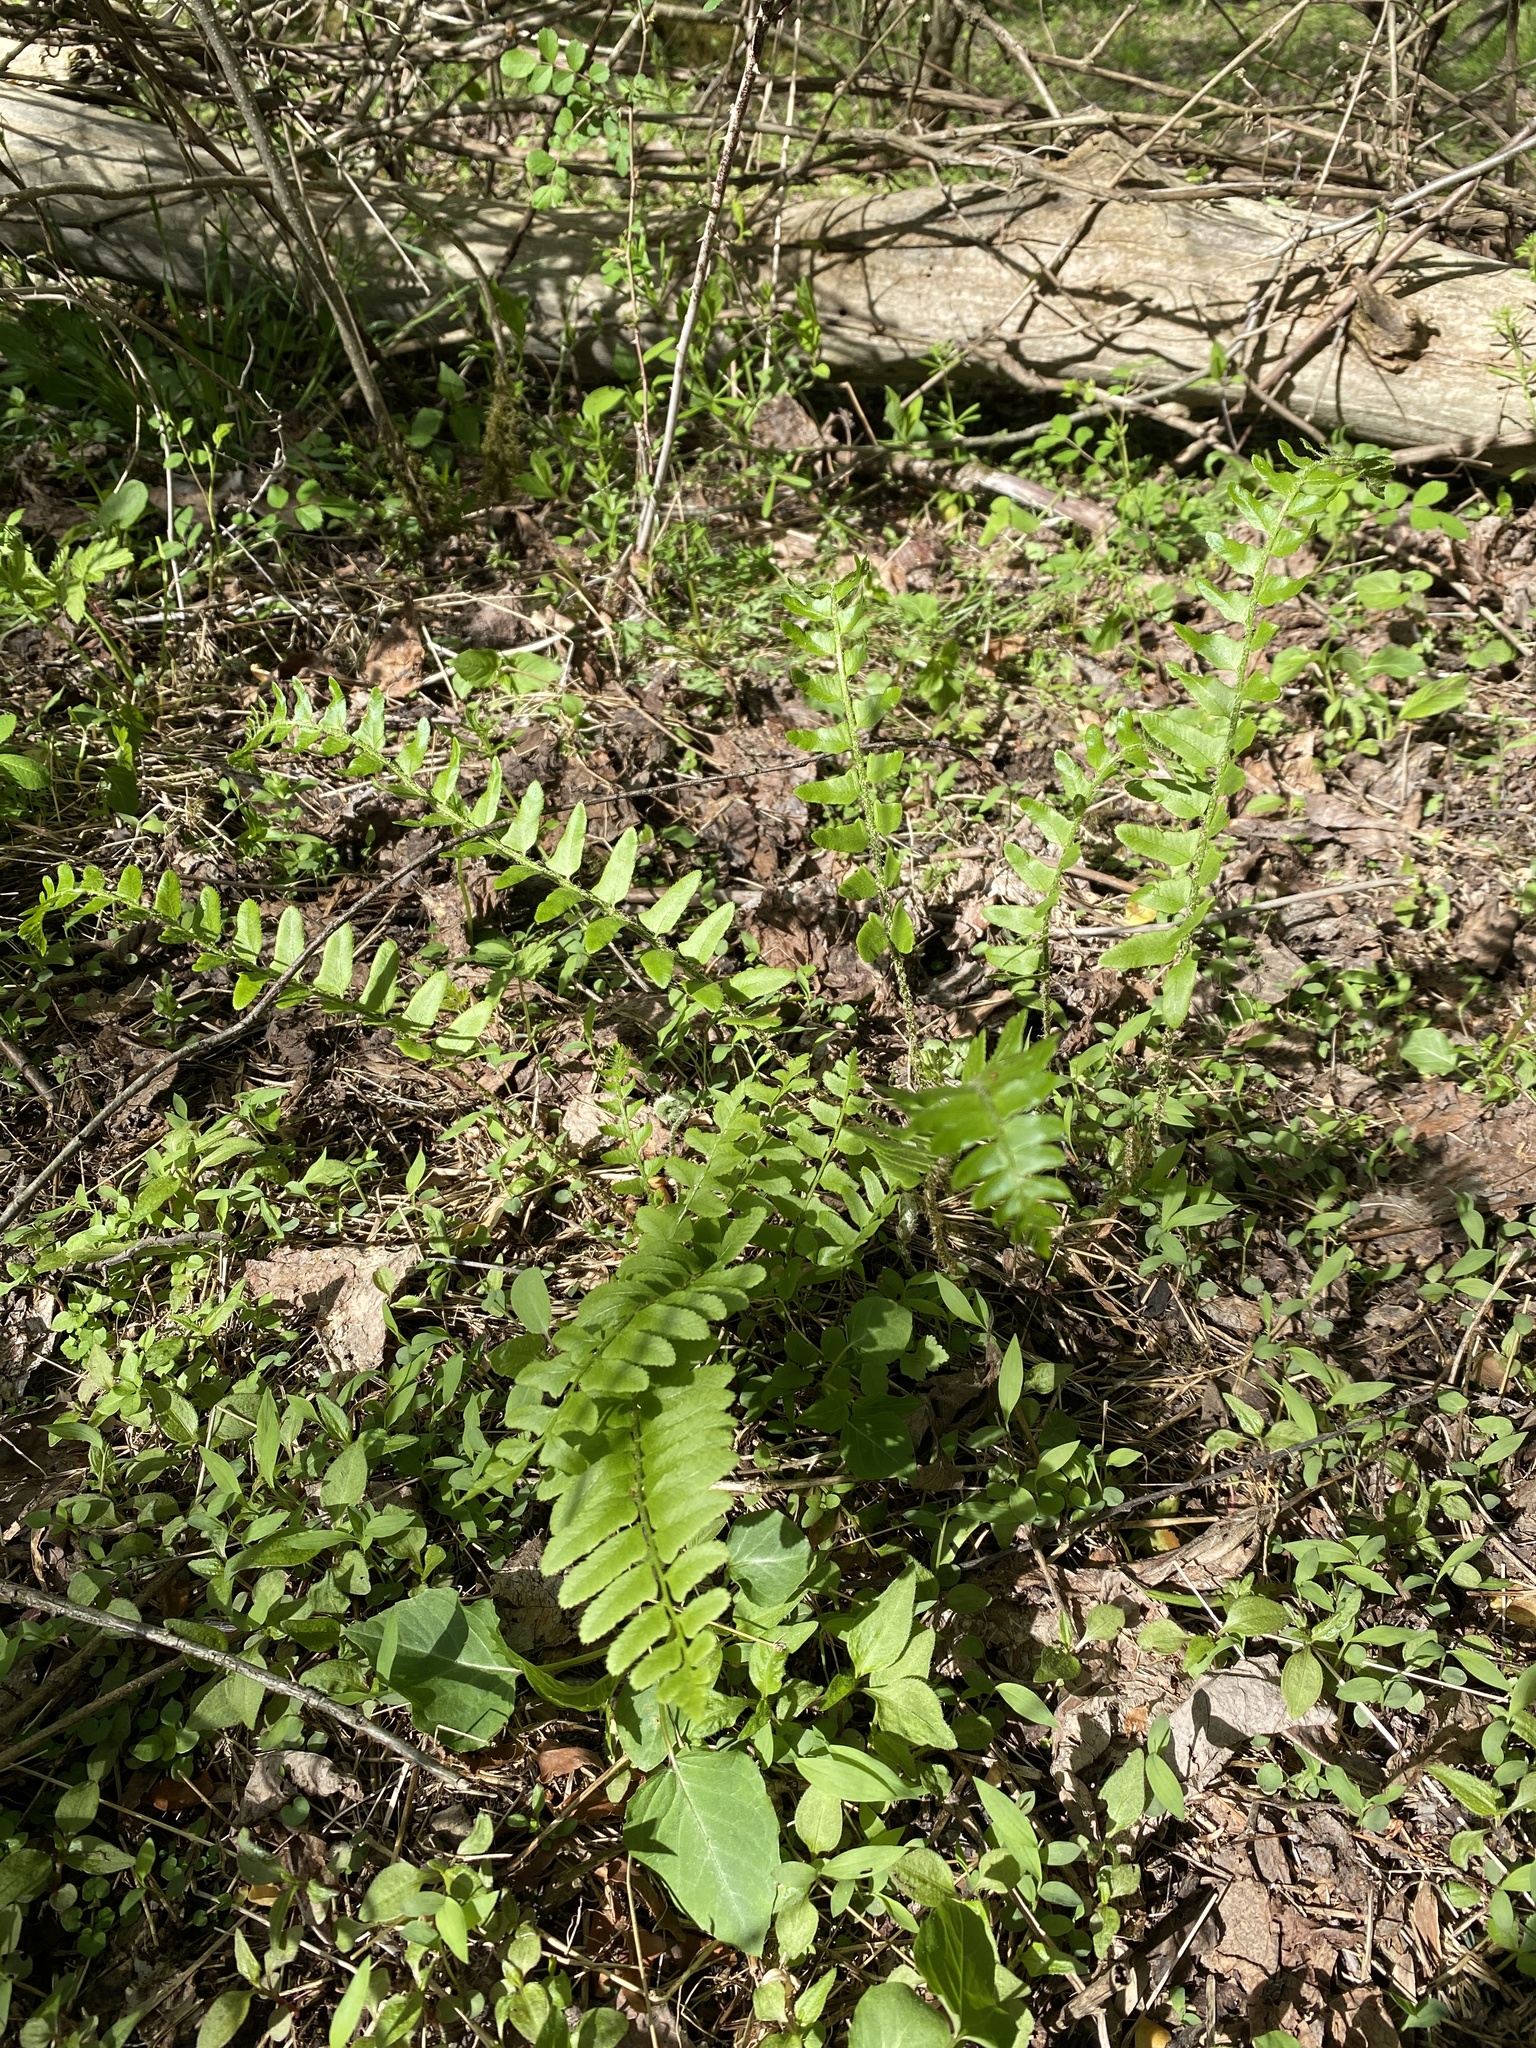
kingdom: Plantae
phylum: Tracheophyta
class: Polypodiopsida
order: Polypodiales
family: Dryopteridaceae
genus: Polystichum
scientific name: Polystichum acrostichoides
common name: Christmas fern
